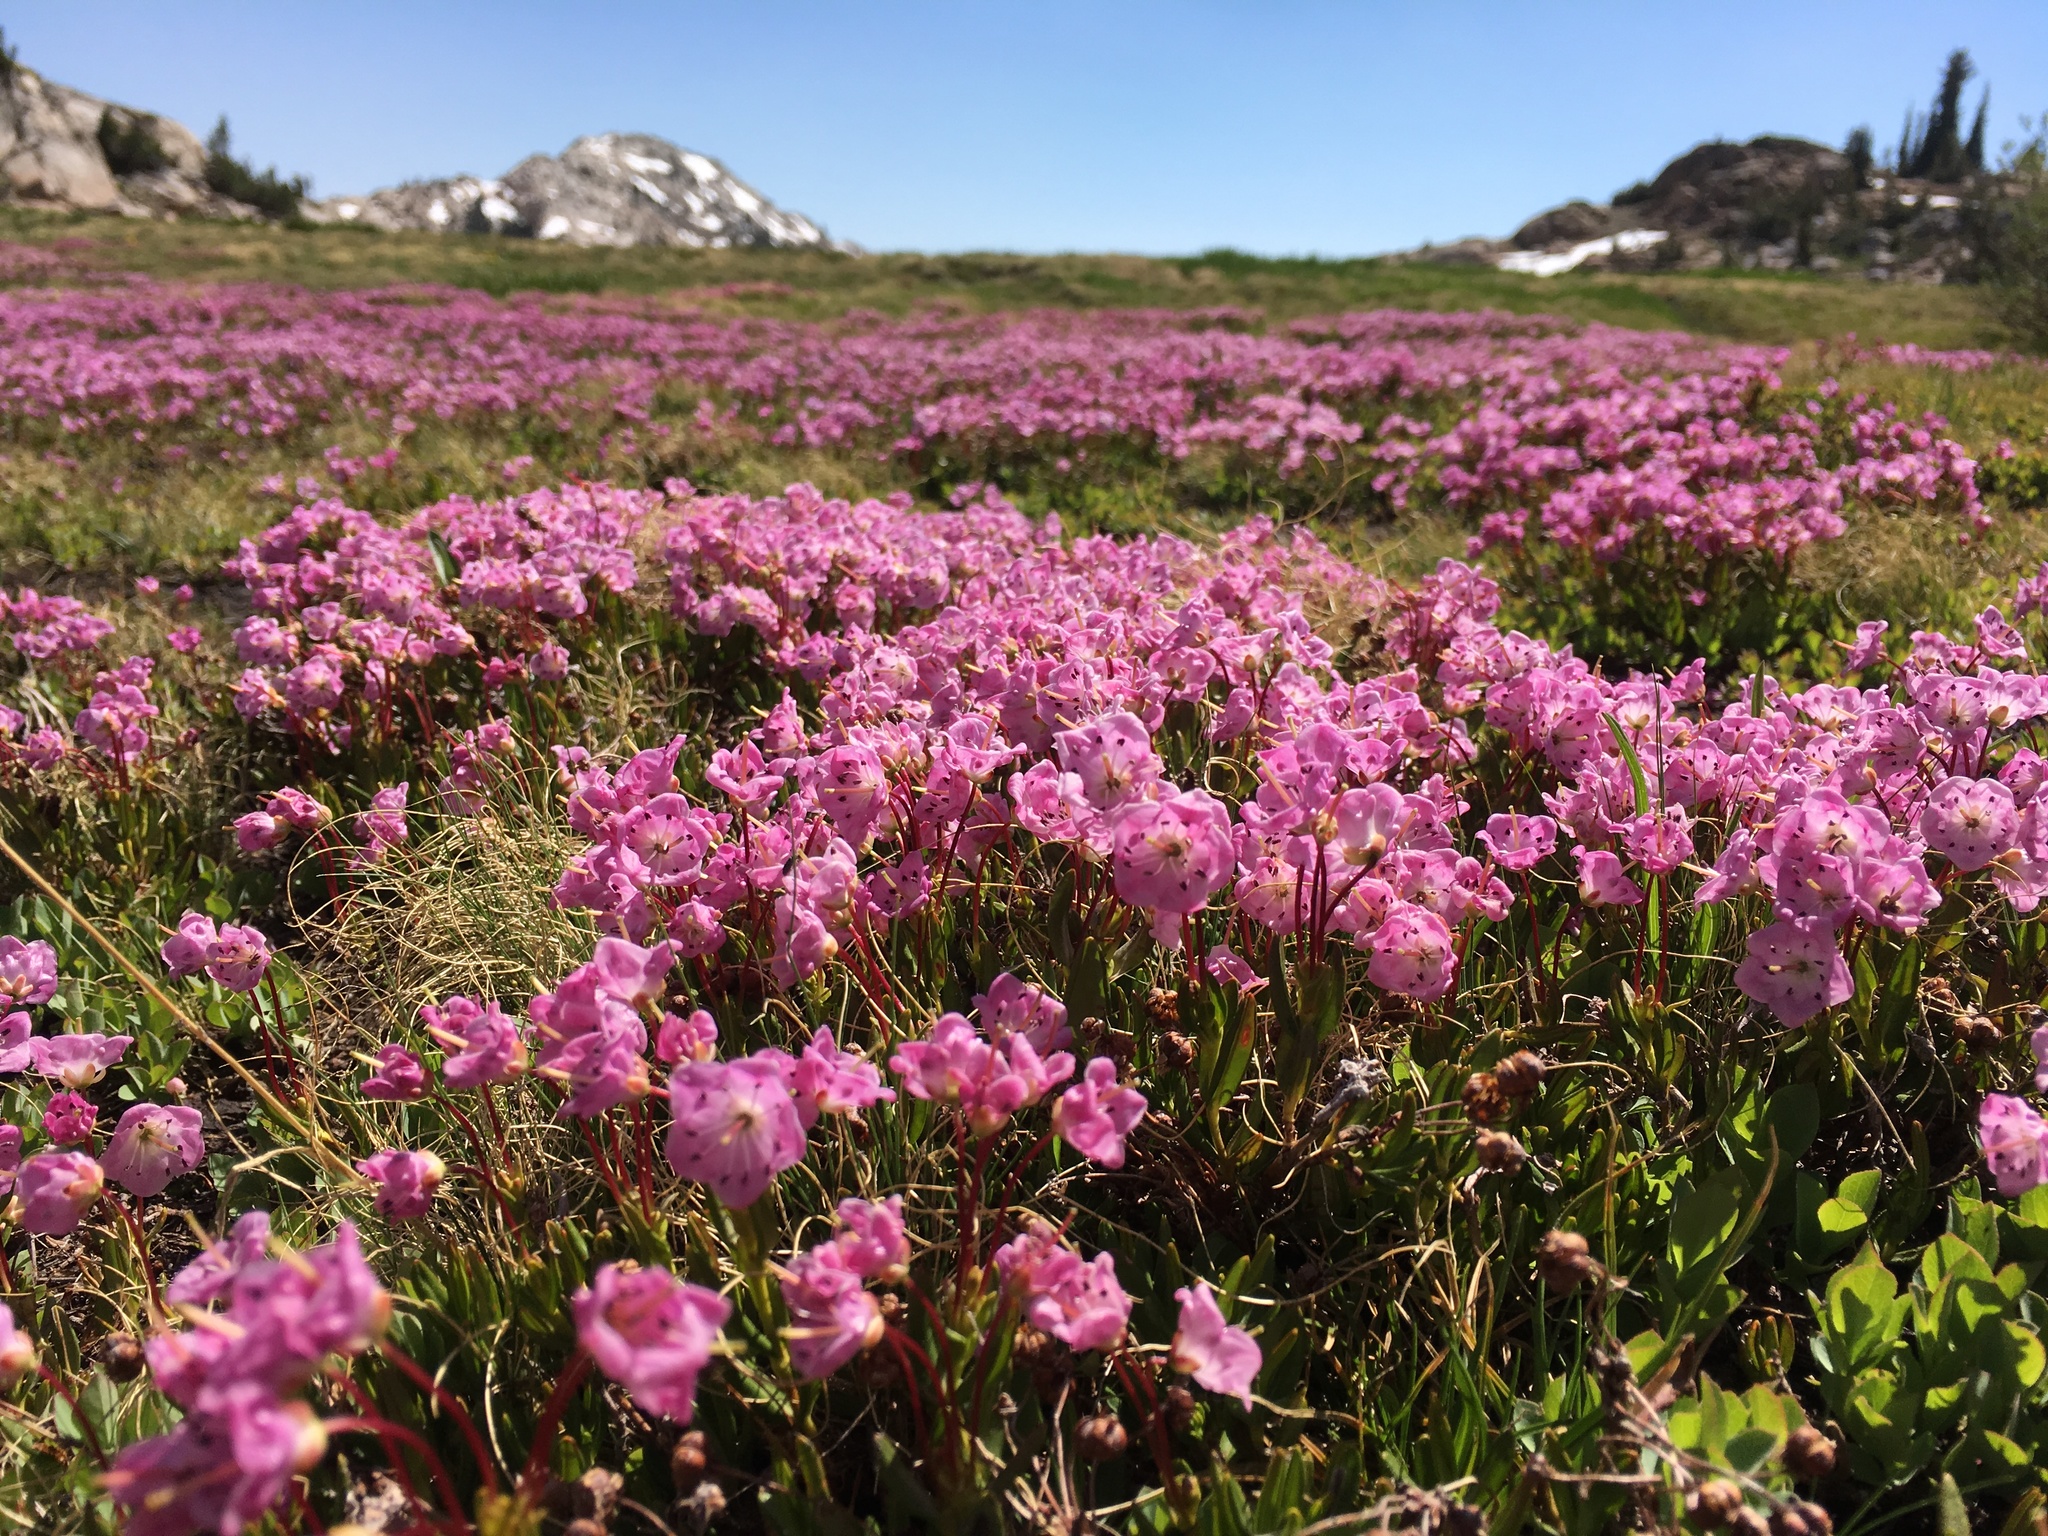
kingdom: Plantae
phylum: Tracheophyta
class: Magnoliopsida
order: Ericales
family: Ericaceae
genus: Kalmia
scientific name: Kalmia microphylla
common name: Alpine bog laurel
